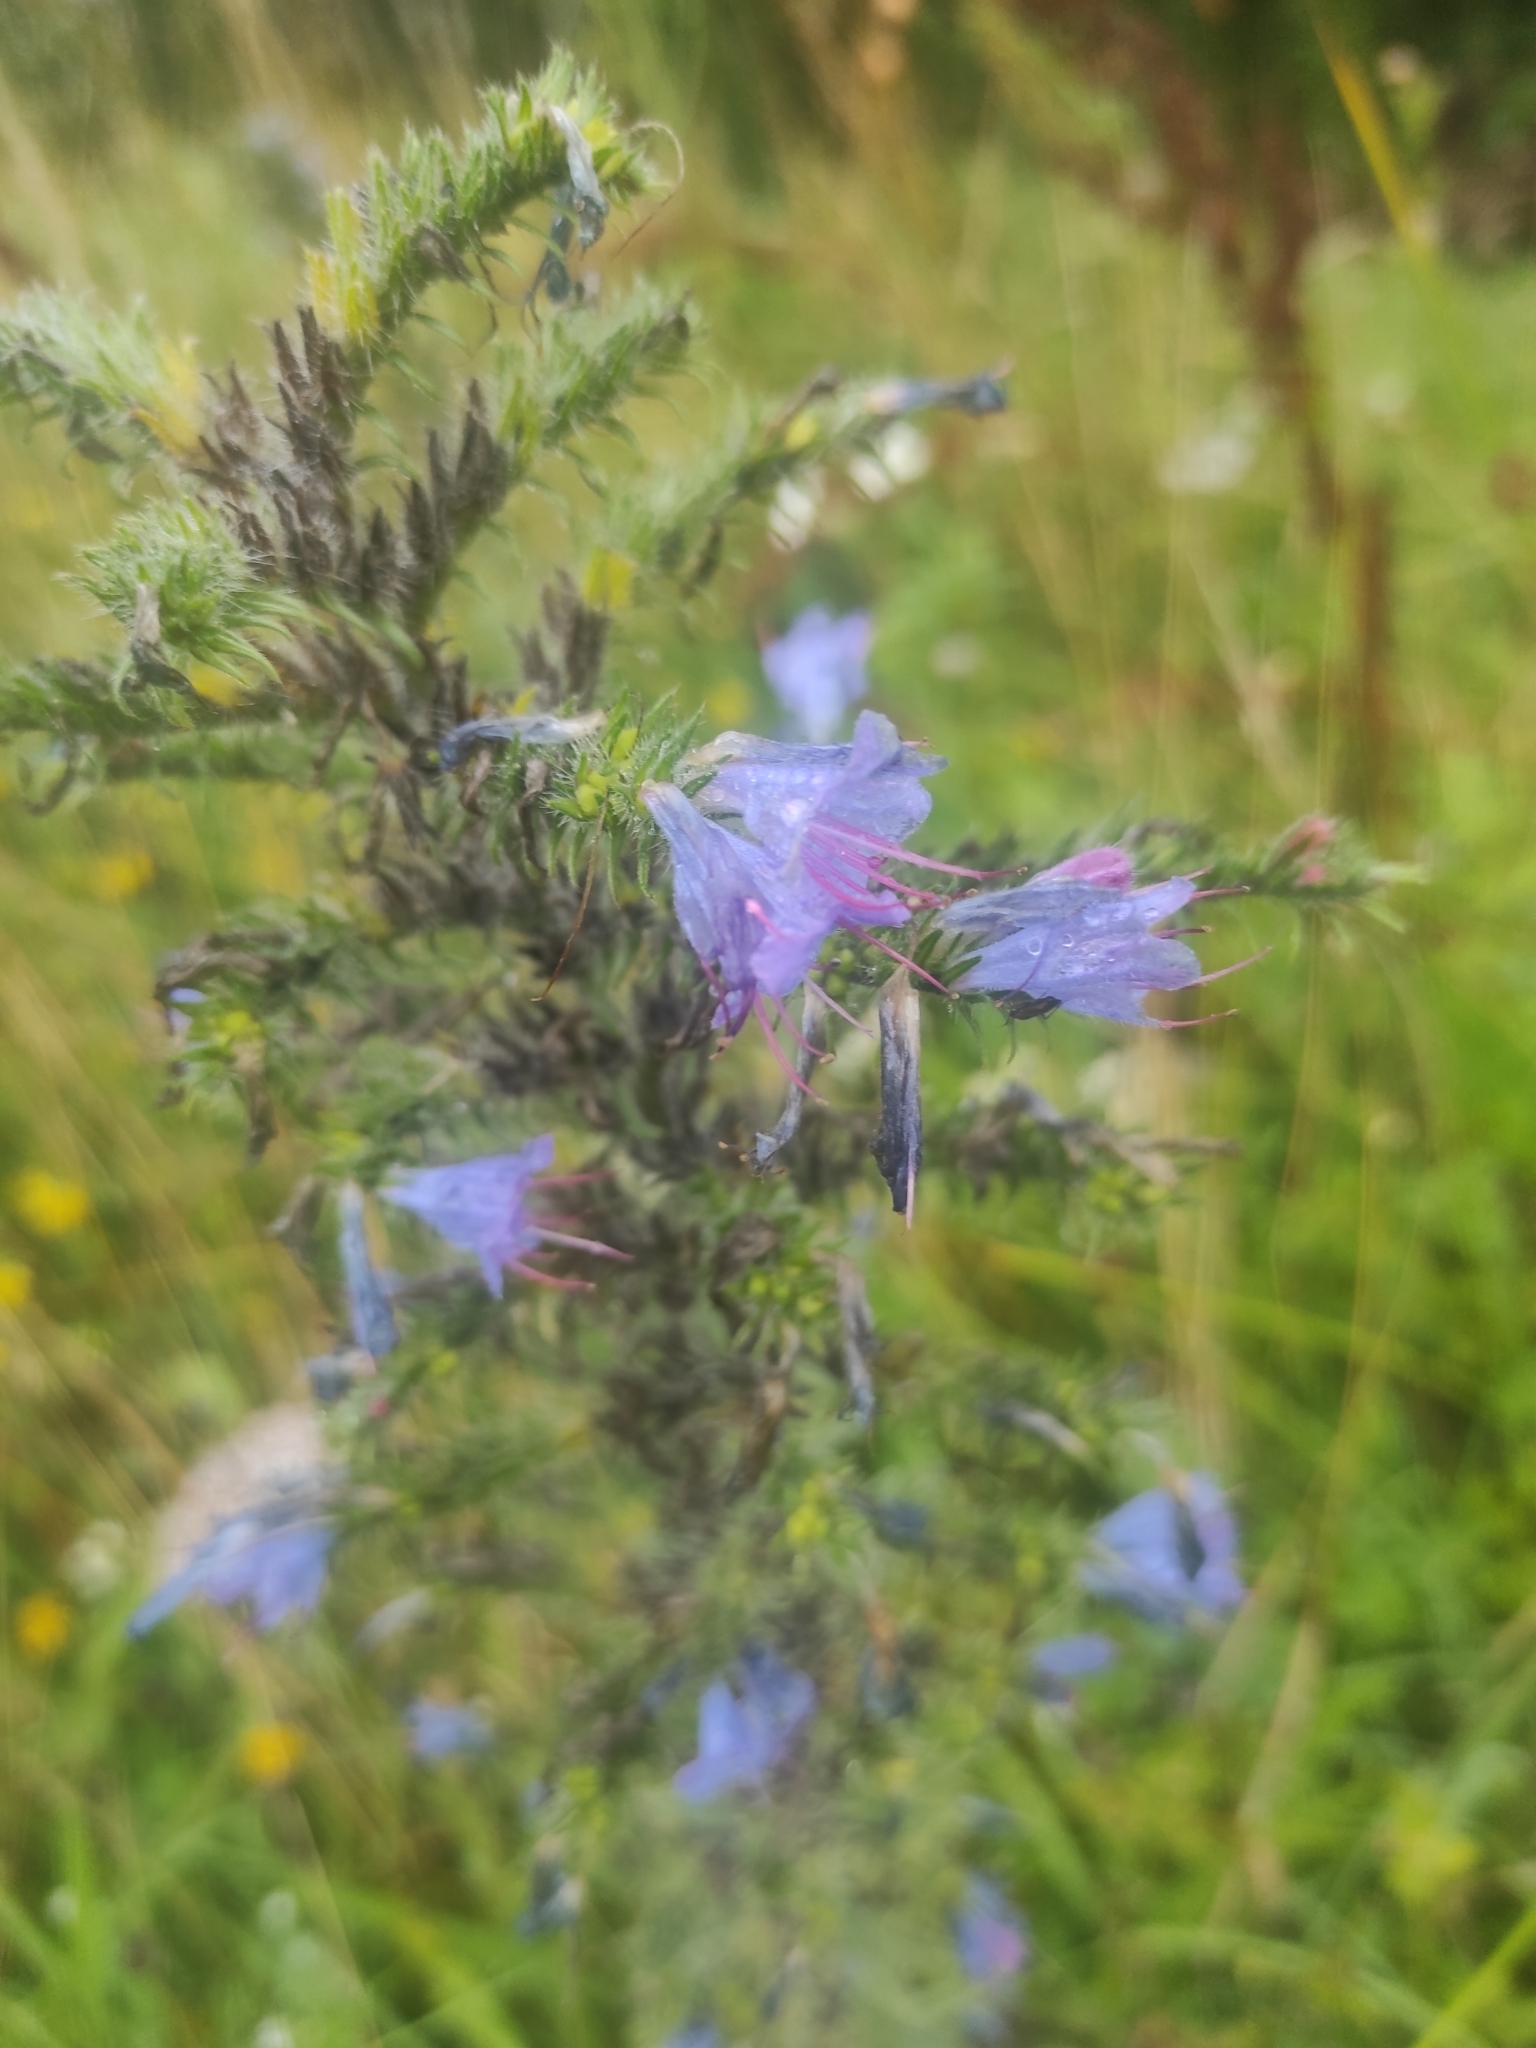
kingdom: Plantae
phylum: Tracheophyta
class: Magnoliopsida
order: Boraginales
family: Boraginaceae
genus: Echium
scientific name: Echium vulgare
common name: Common viper's bugloss
